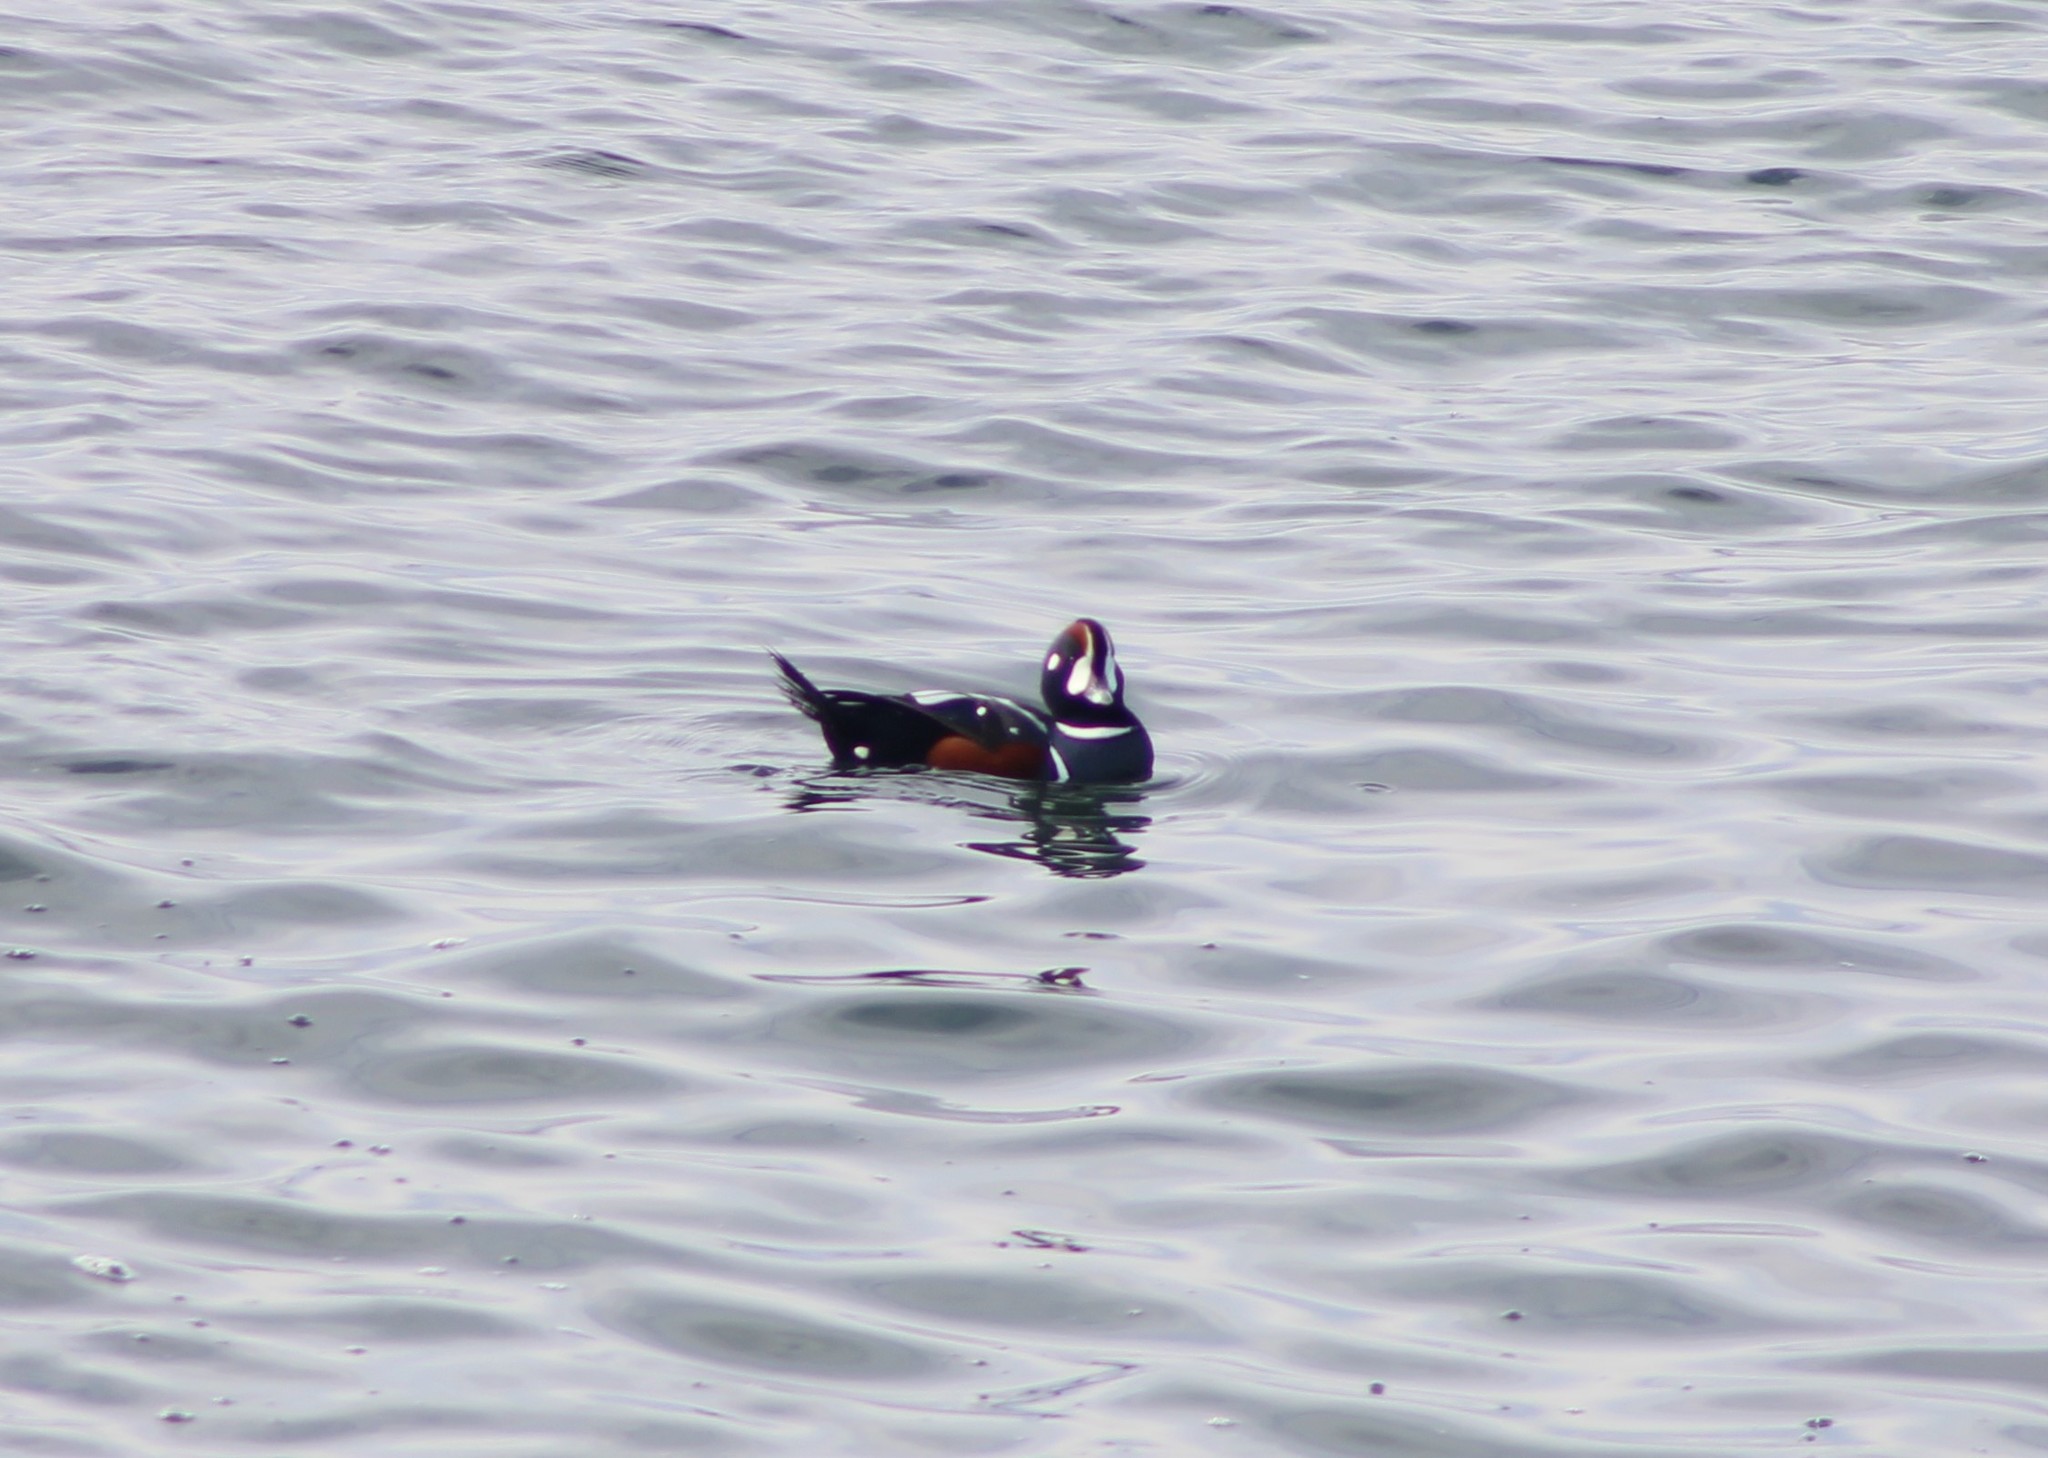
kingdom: Animalia
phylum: Chordata
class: Aves
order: Anseriformes
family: Anatidae
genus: Histrionicus
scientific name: Histrionicus histrionicus
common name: Harlequin duck
